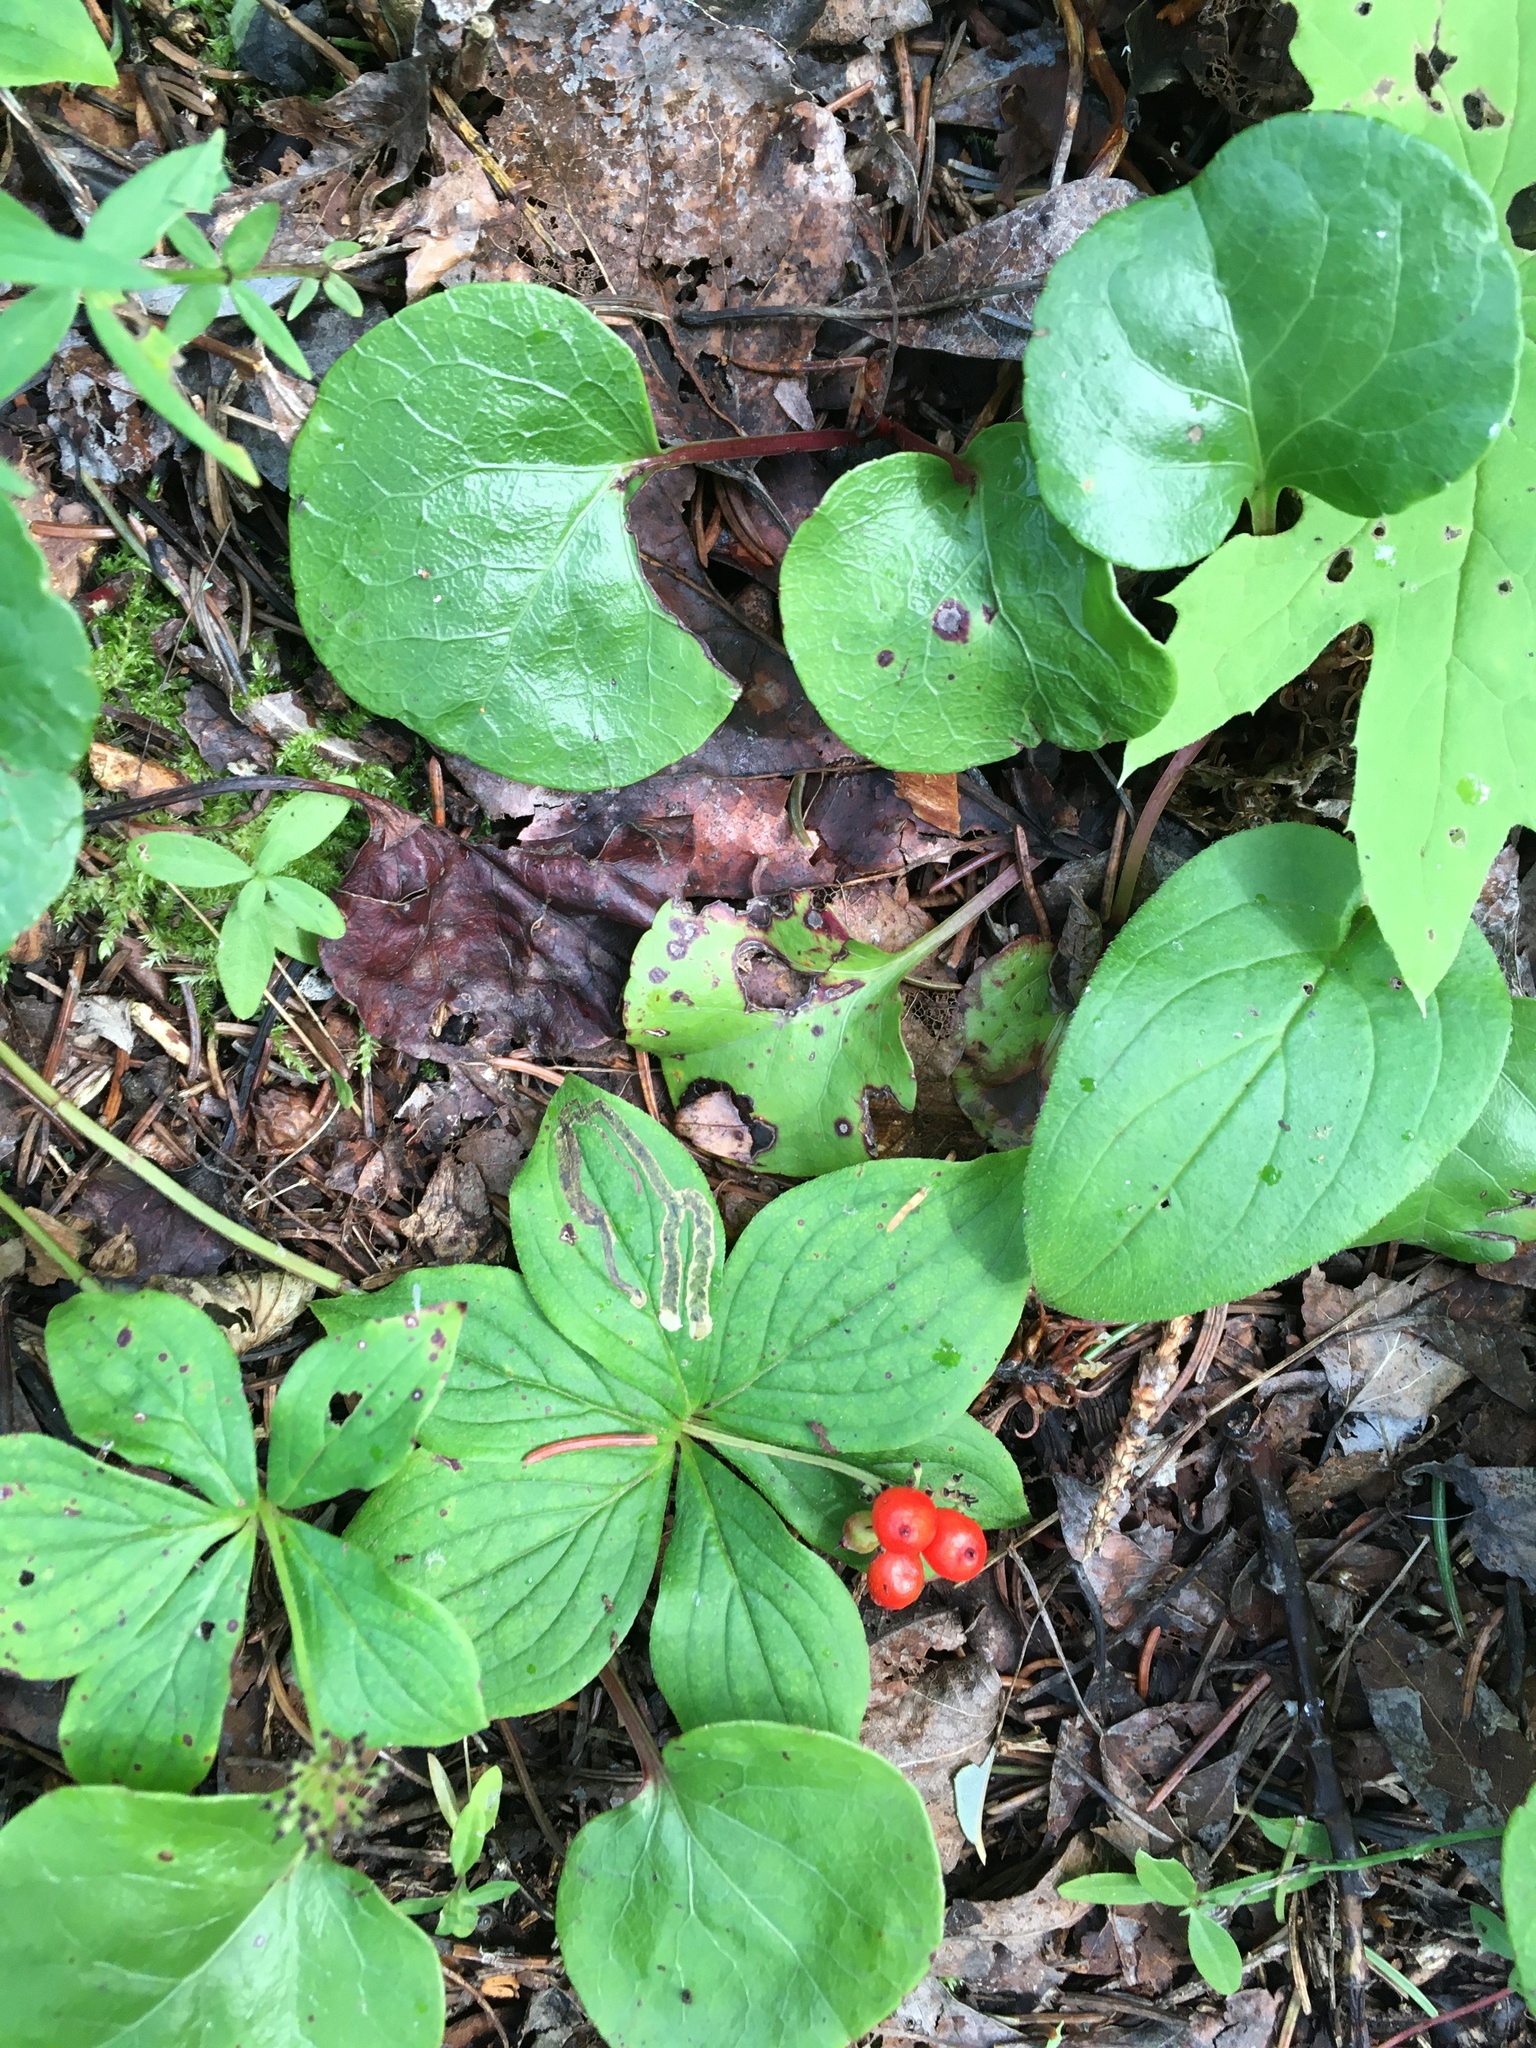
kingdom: Plantae
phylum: Tracheophyta
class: Magnoliopsida
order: Cornales
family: Cornaceae
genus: Cornus
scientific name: Cornus canadensis
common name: Creeping dogwood
